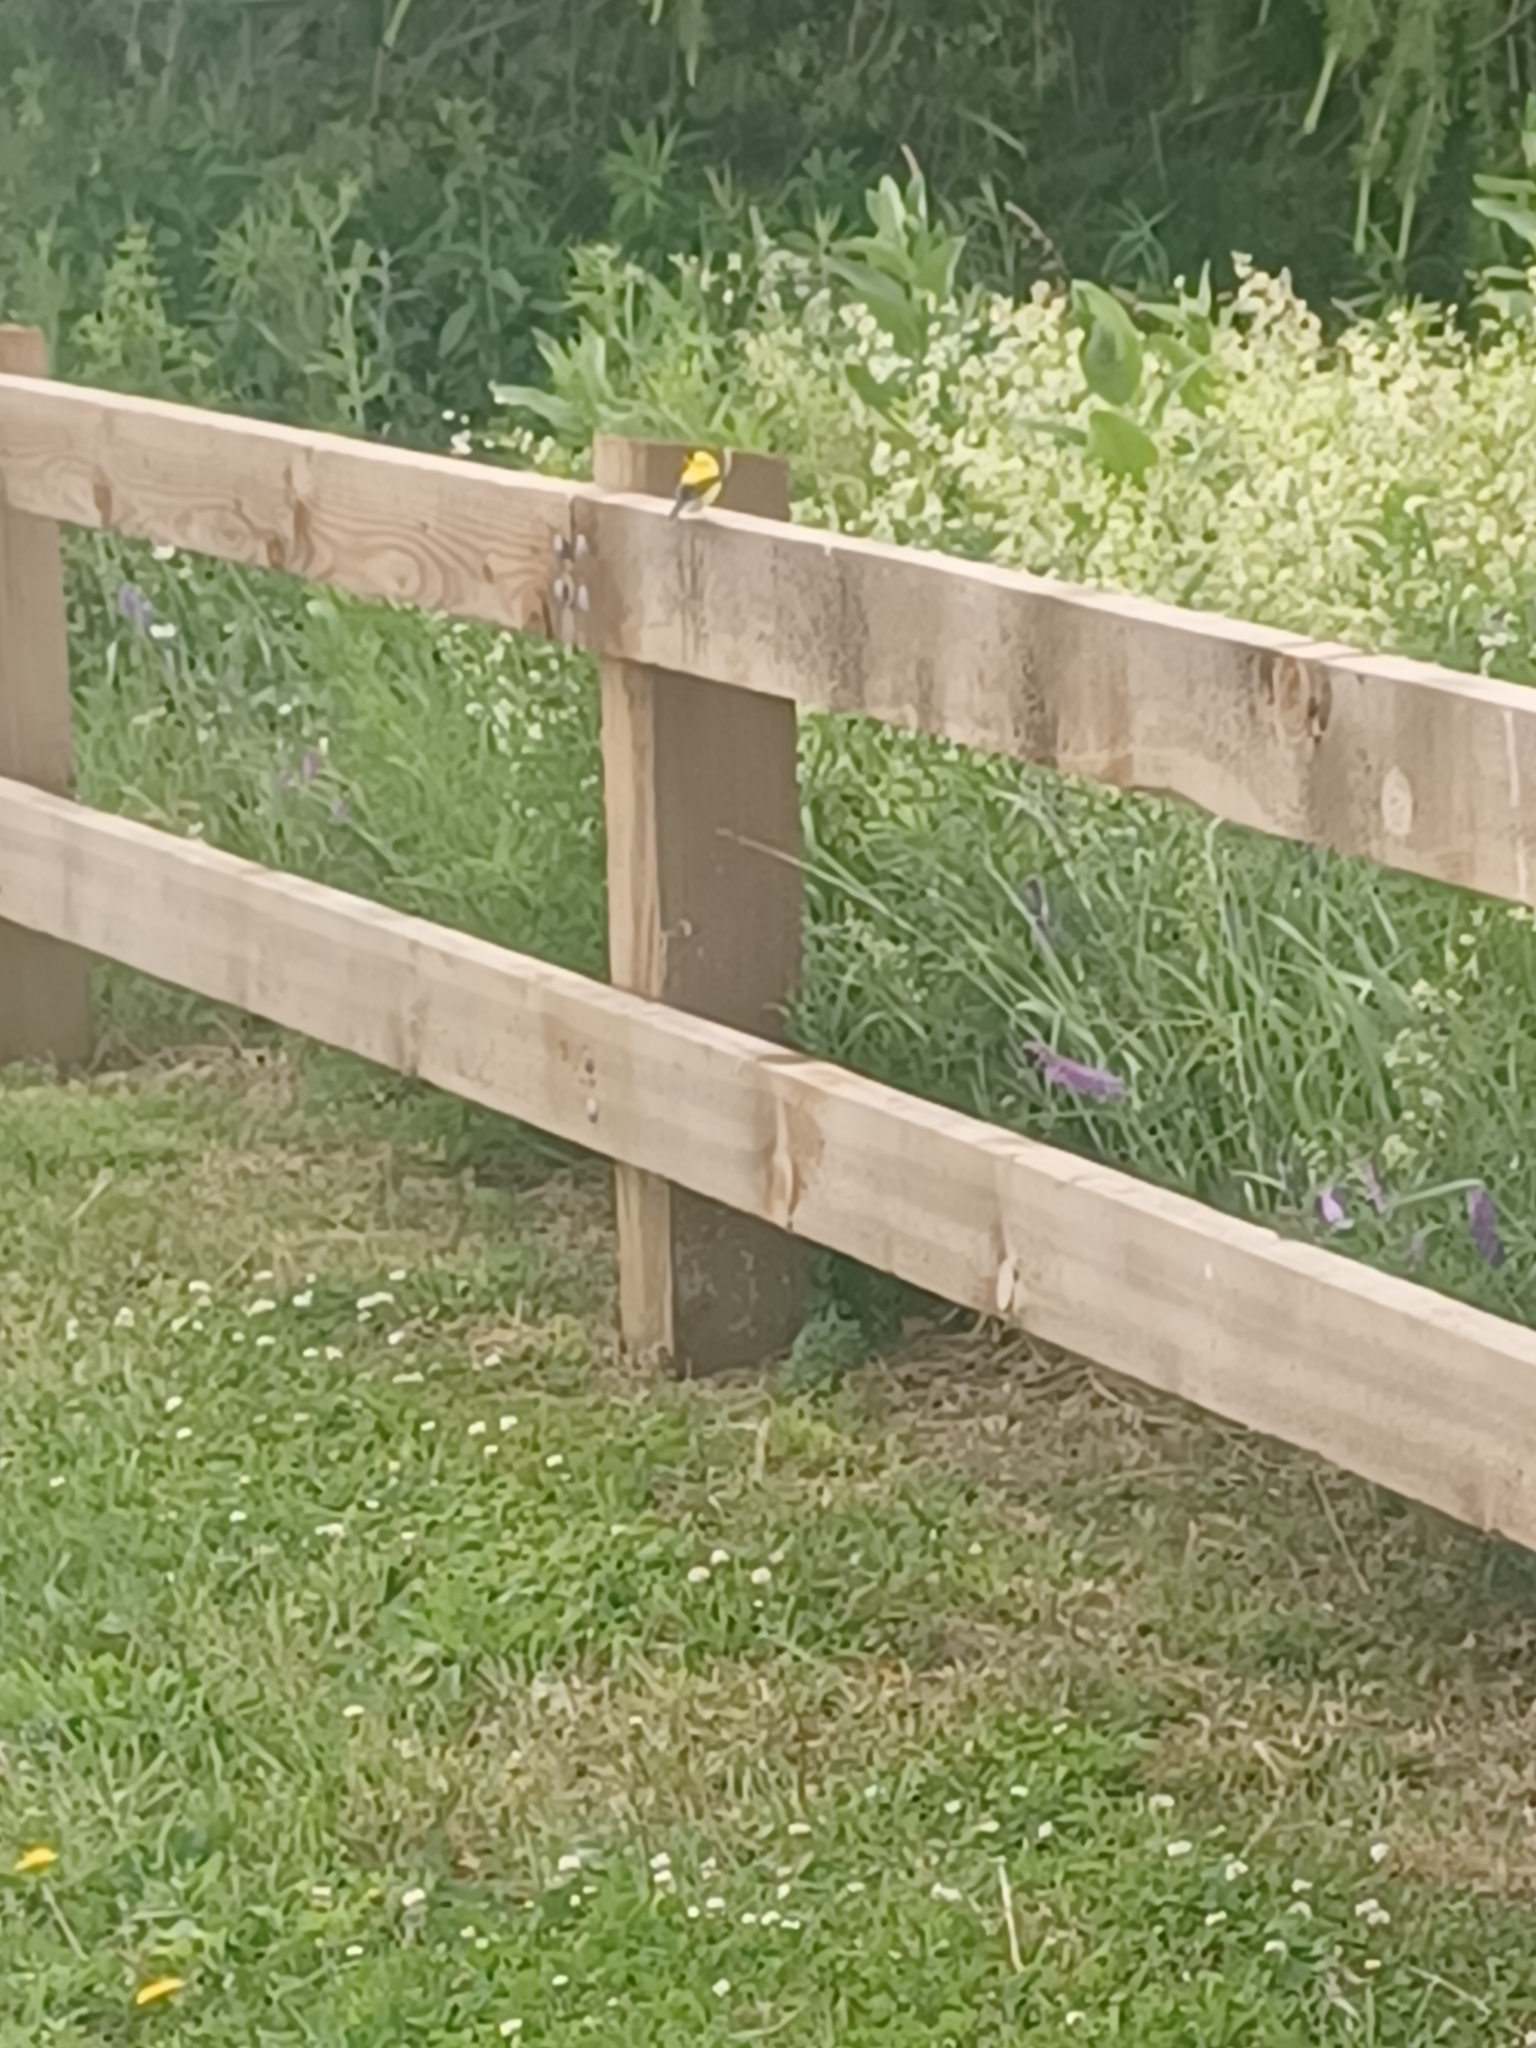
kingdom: Animalia
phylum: Chordata
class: Aves
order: Passeriformes
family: Fringillidae
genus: Spinus
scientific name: Spinus tristis
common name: American goldfinch
